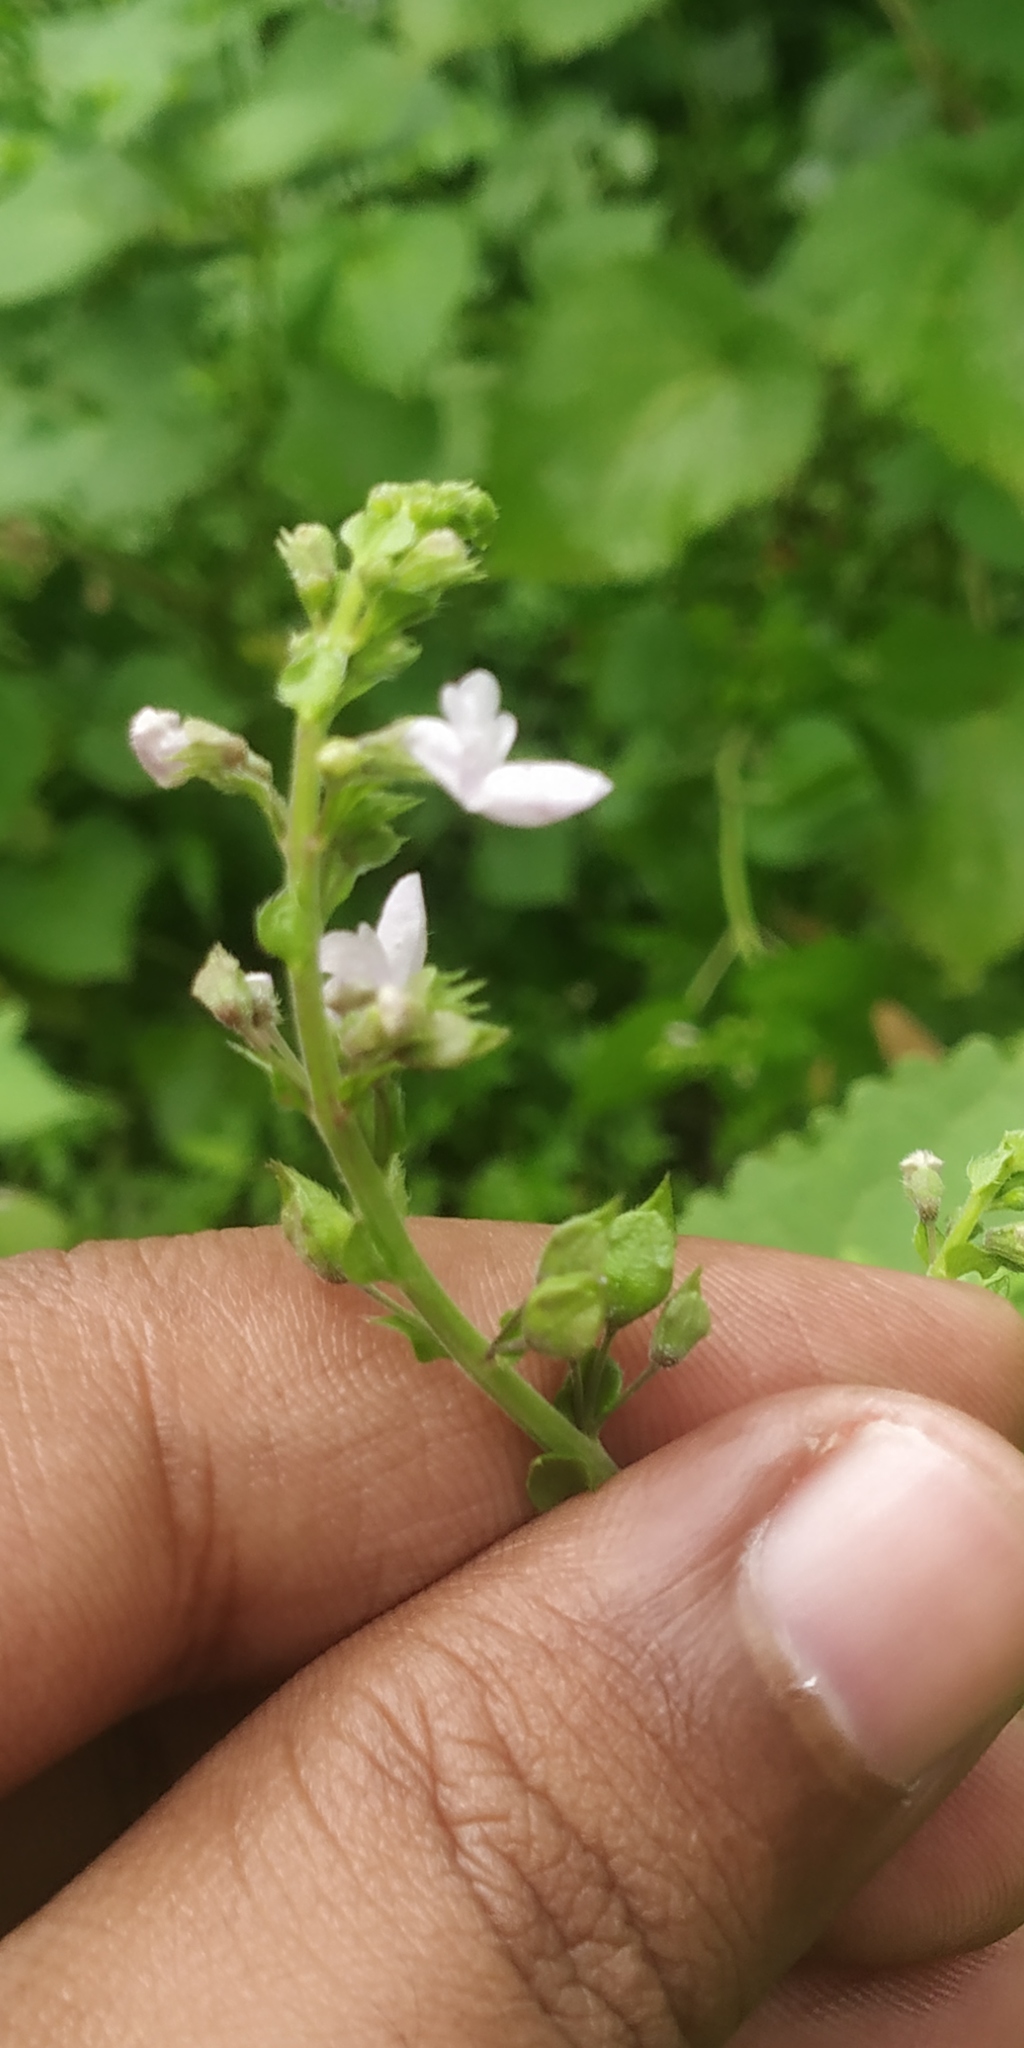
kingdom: Plantae
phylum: Tracheophyta
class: Magnoliopsida
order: Lamiales
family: Lamiaceae
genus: Equilabium
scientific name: Equilabium molle
